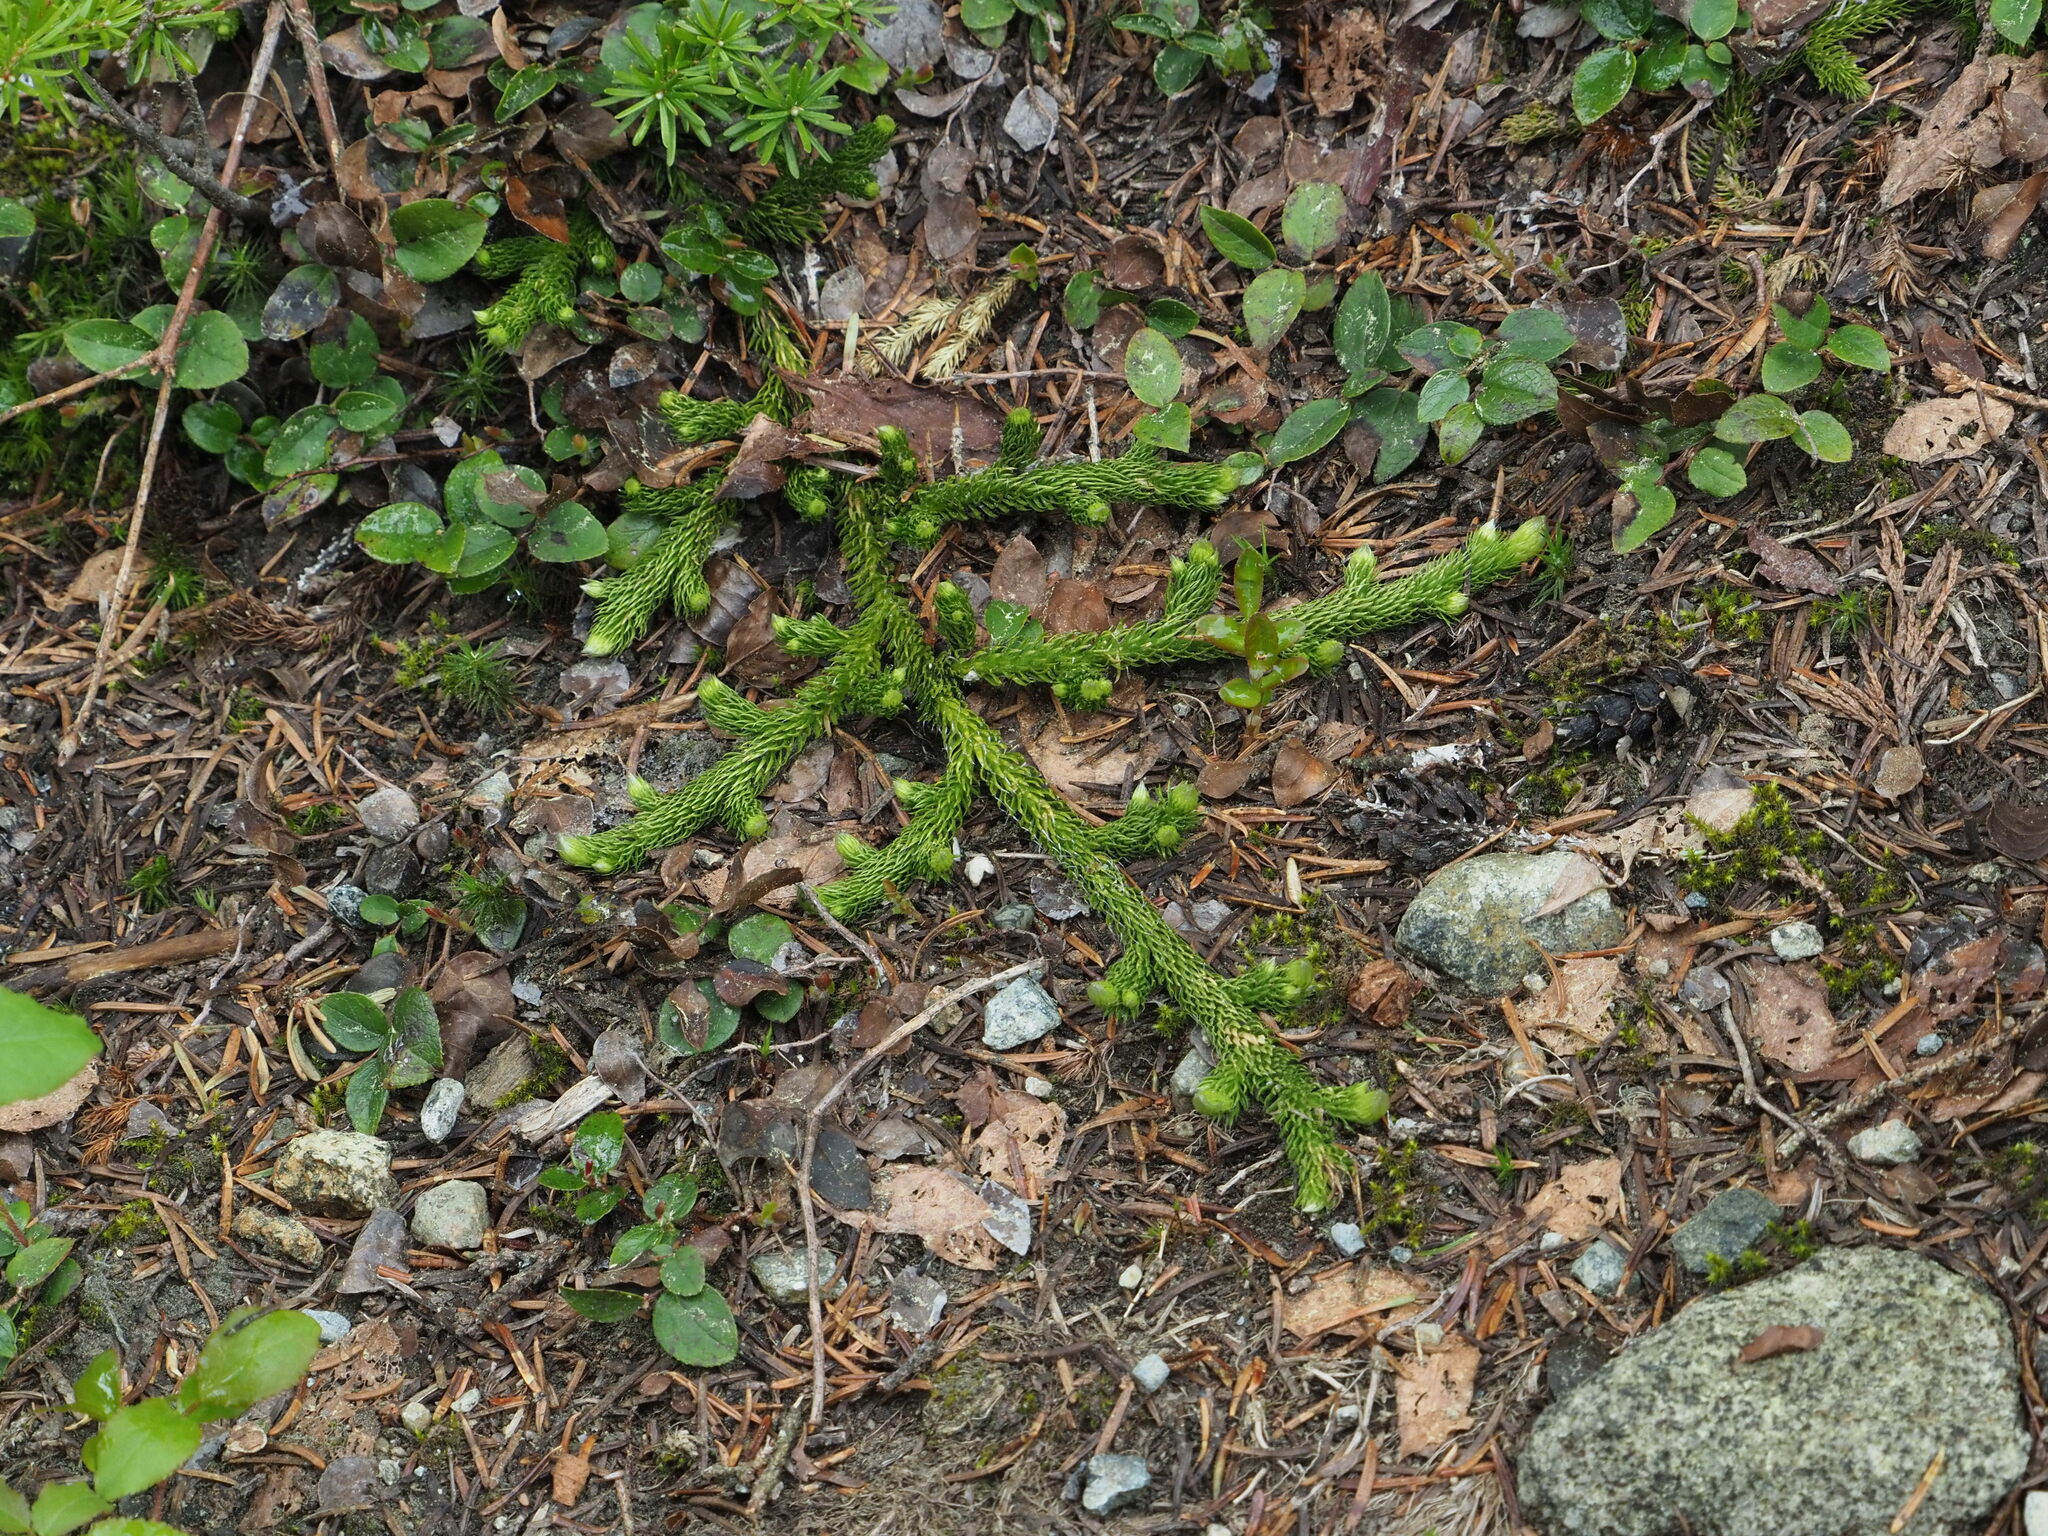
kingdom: Plantae
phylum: Tracheophyta
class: Lycopodiopsida
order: Lycopodiales
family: Lycopodiaceae
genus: Lycopodium
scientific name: Lycopodium clavatum
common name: Stag's-horn clubmoss
